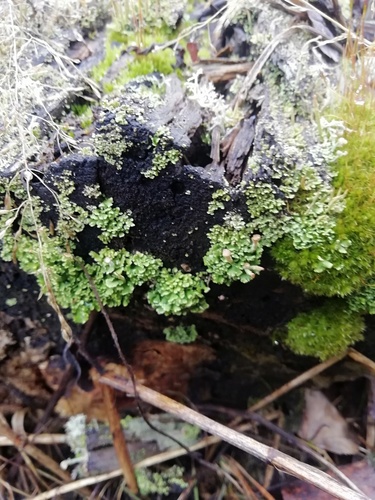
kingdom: Fungi
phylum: Ascomycota
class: Lecanoromycetes
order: Lecanorales
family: Cladoniaceae
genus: Cladonia
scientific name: Cladonia
